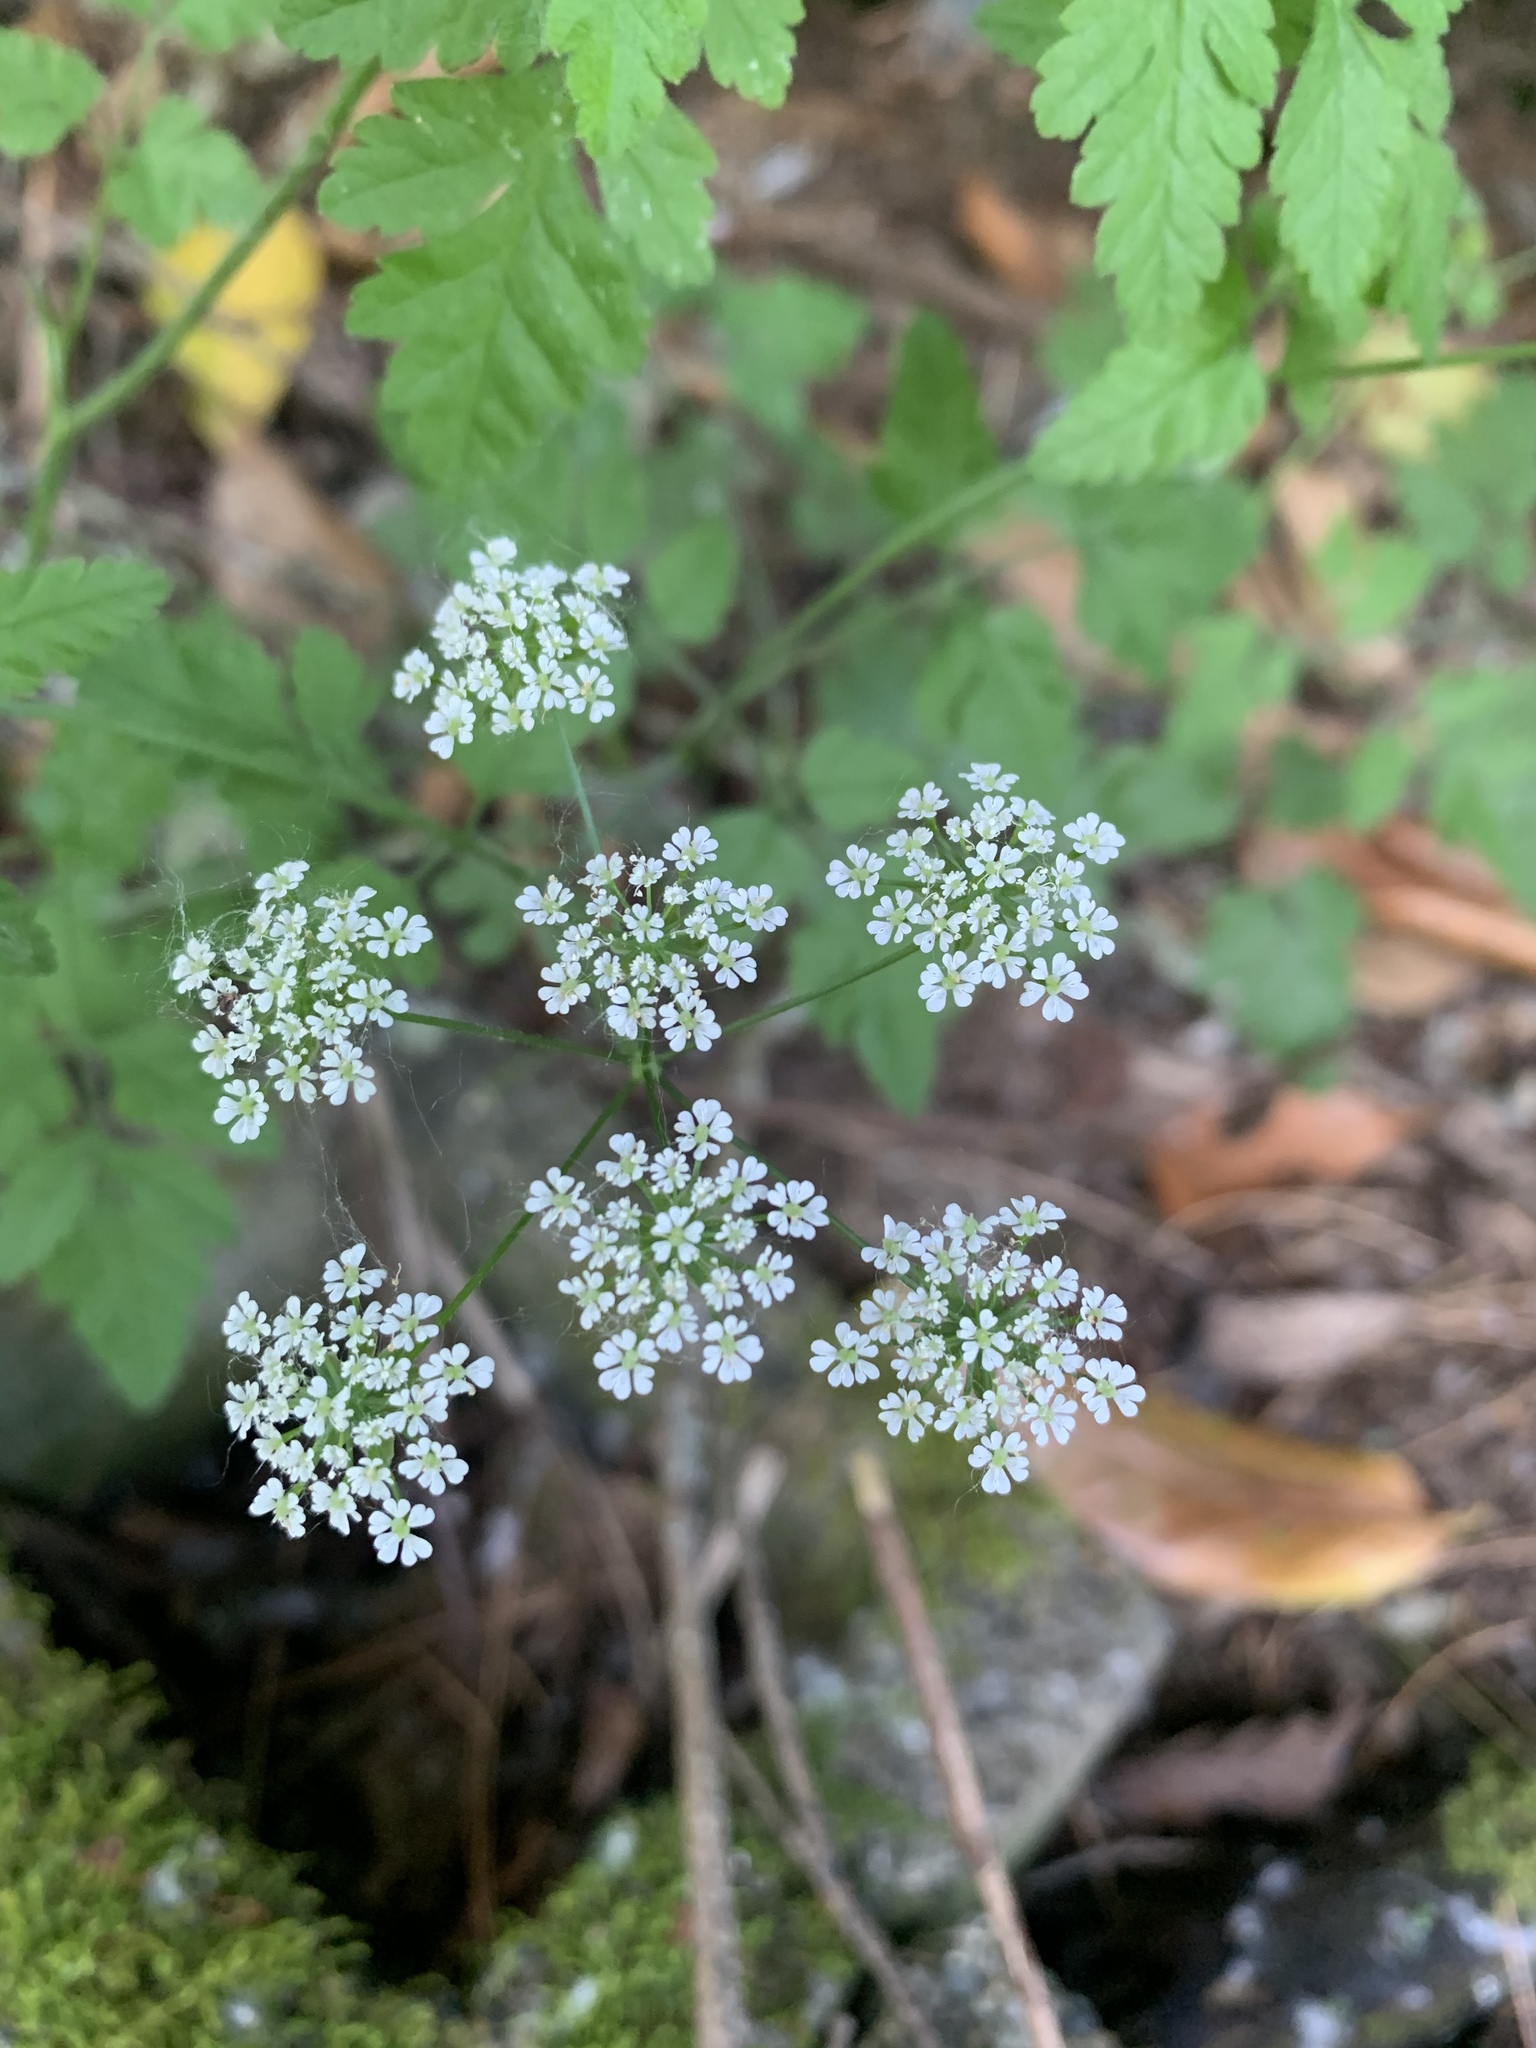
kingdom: Plantae
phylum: Tracheophyta
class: Magnoliopsida
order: Apiales
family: Apiaceae
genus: Chaerophyllum
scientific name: Chaerophyllum temulum
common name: Rough chervil
